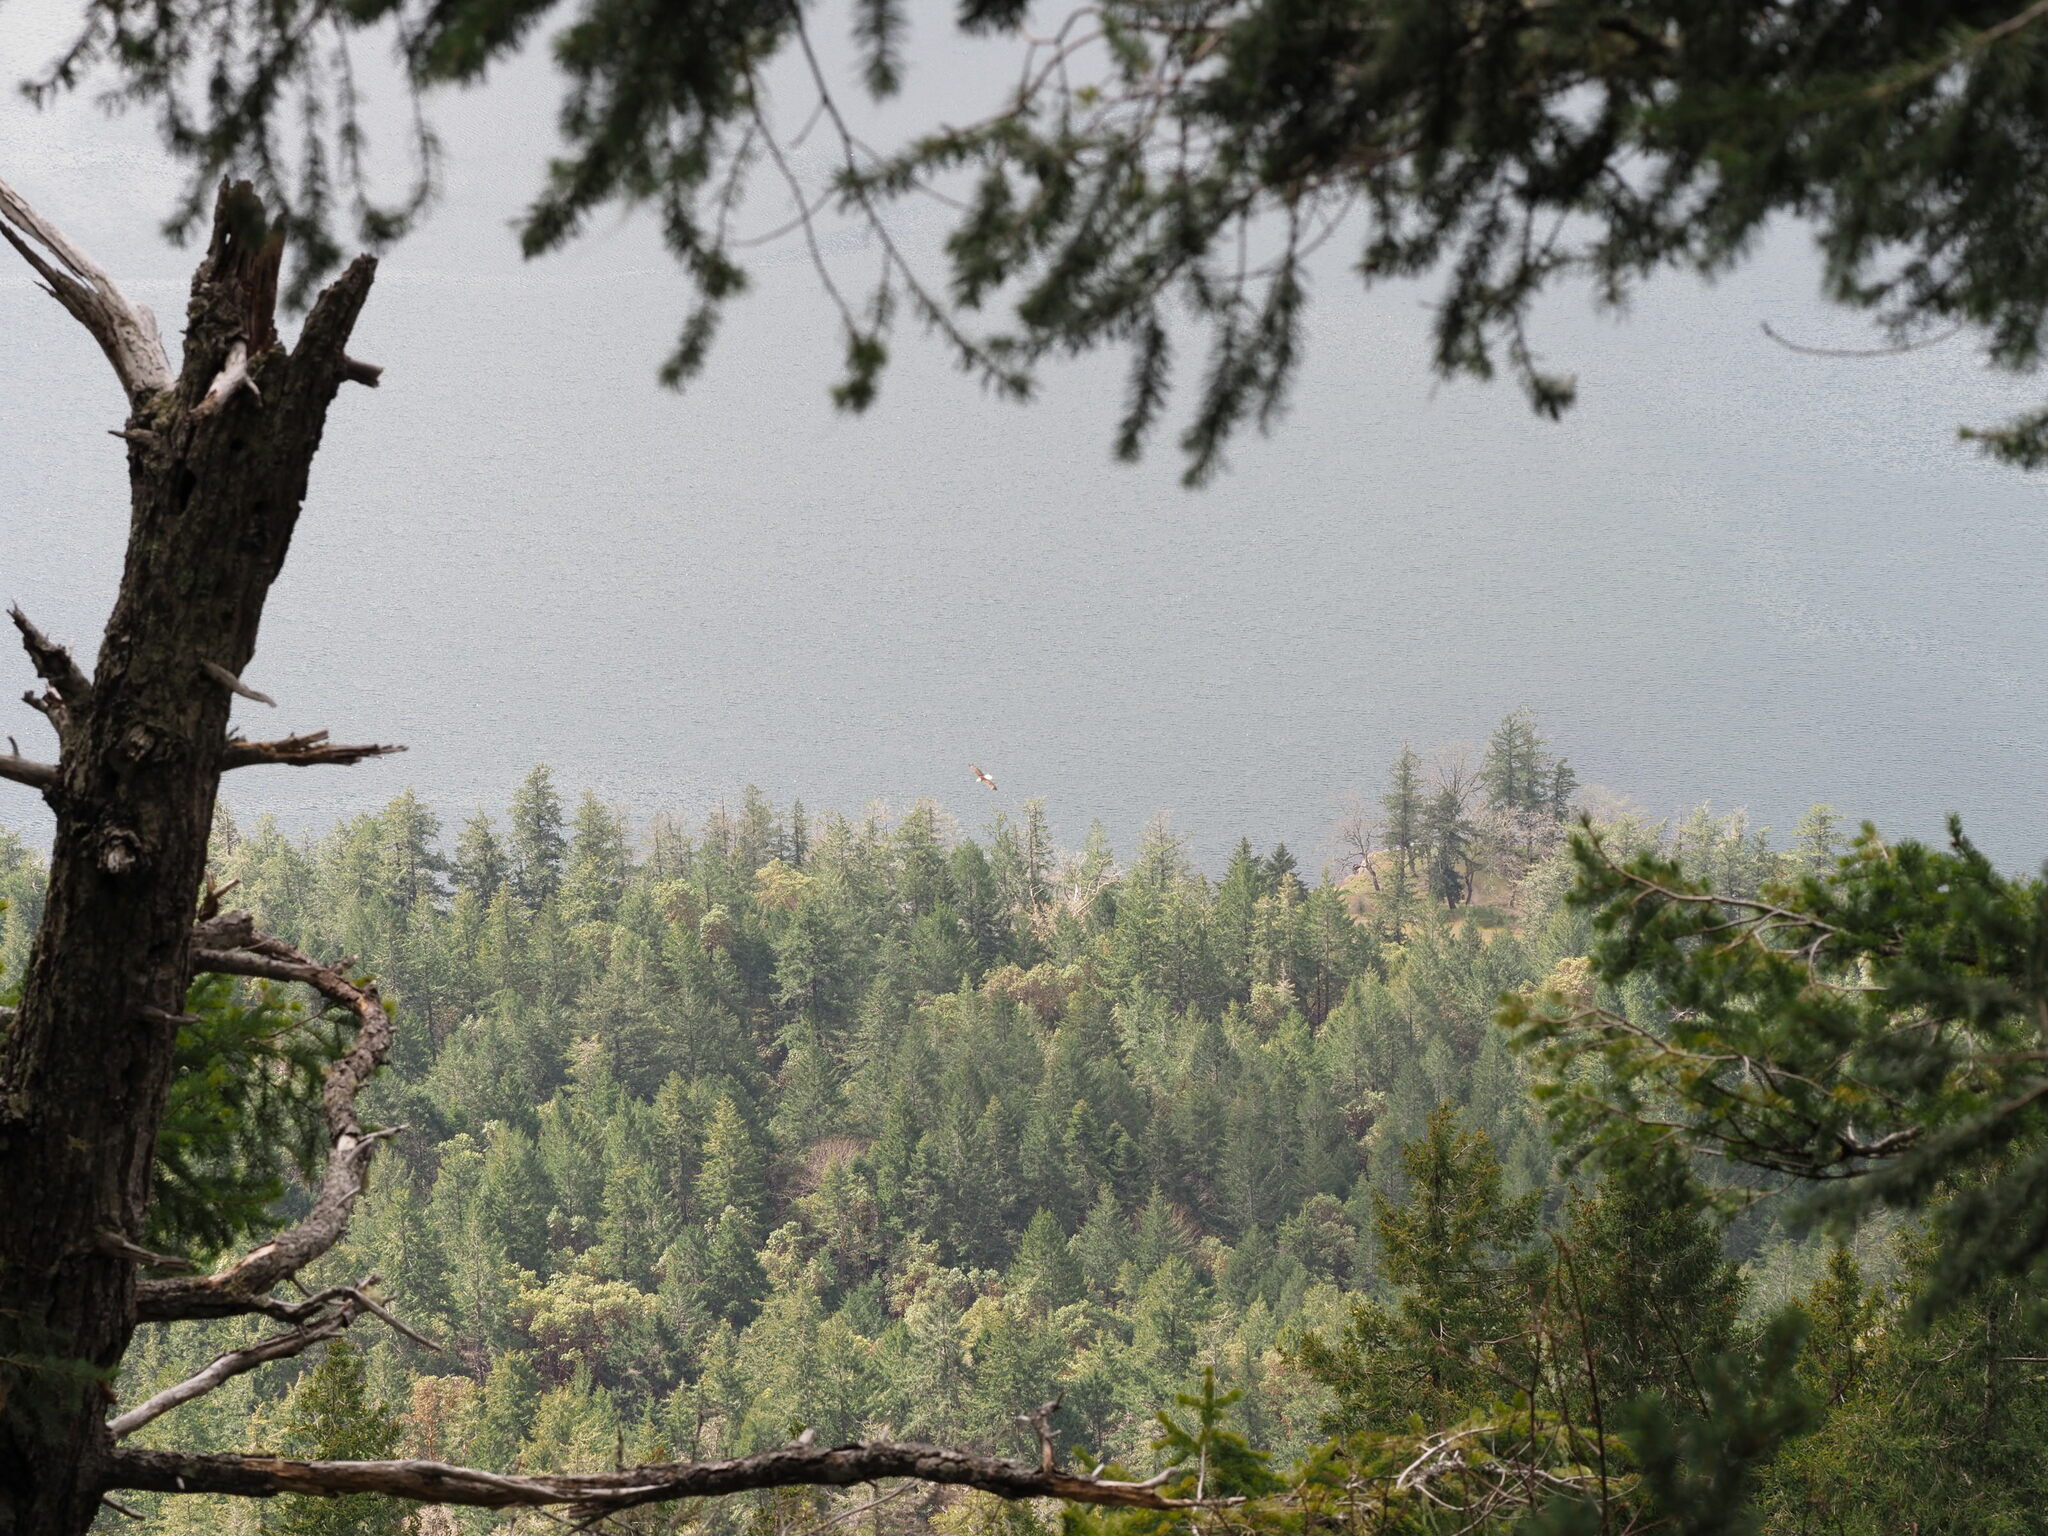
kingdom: Animalia
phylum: Chordata
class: Aves
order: Accipitriformes
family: Accipitridae
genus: Haliaeetus
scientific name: Haliaeetus leucocephalus
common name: Bald eagle
